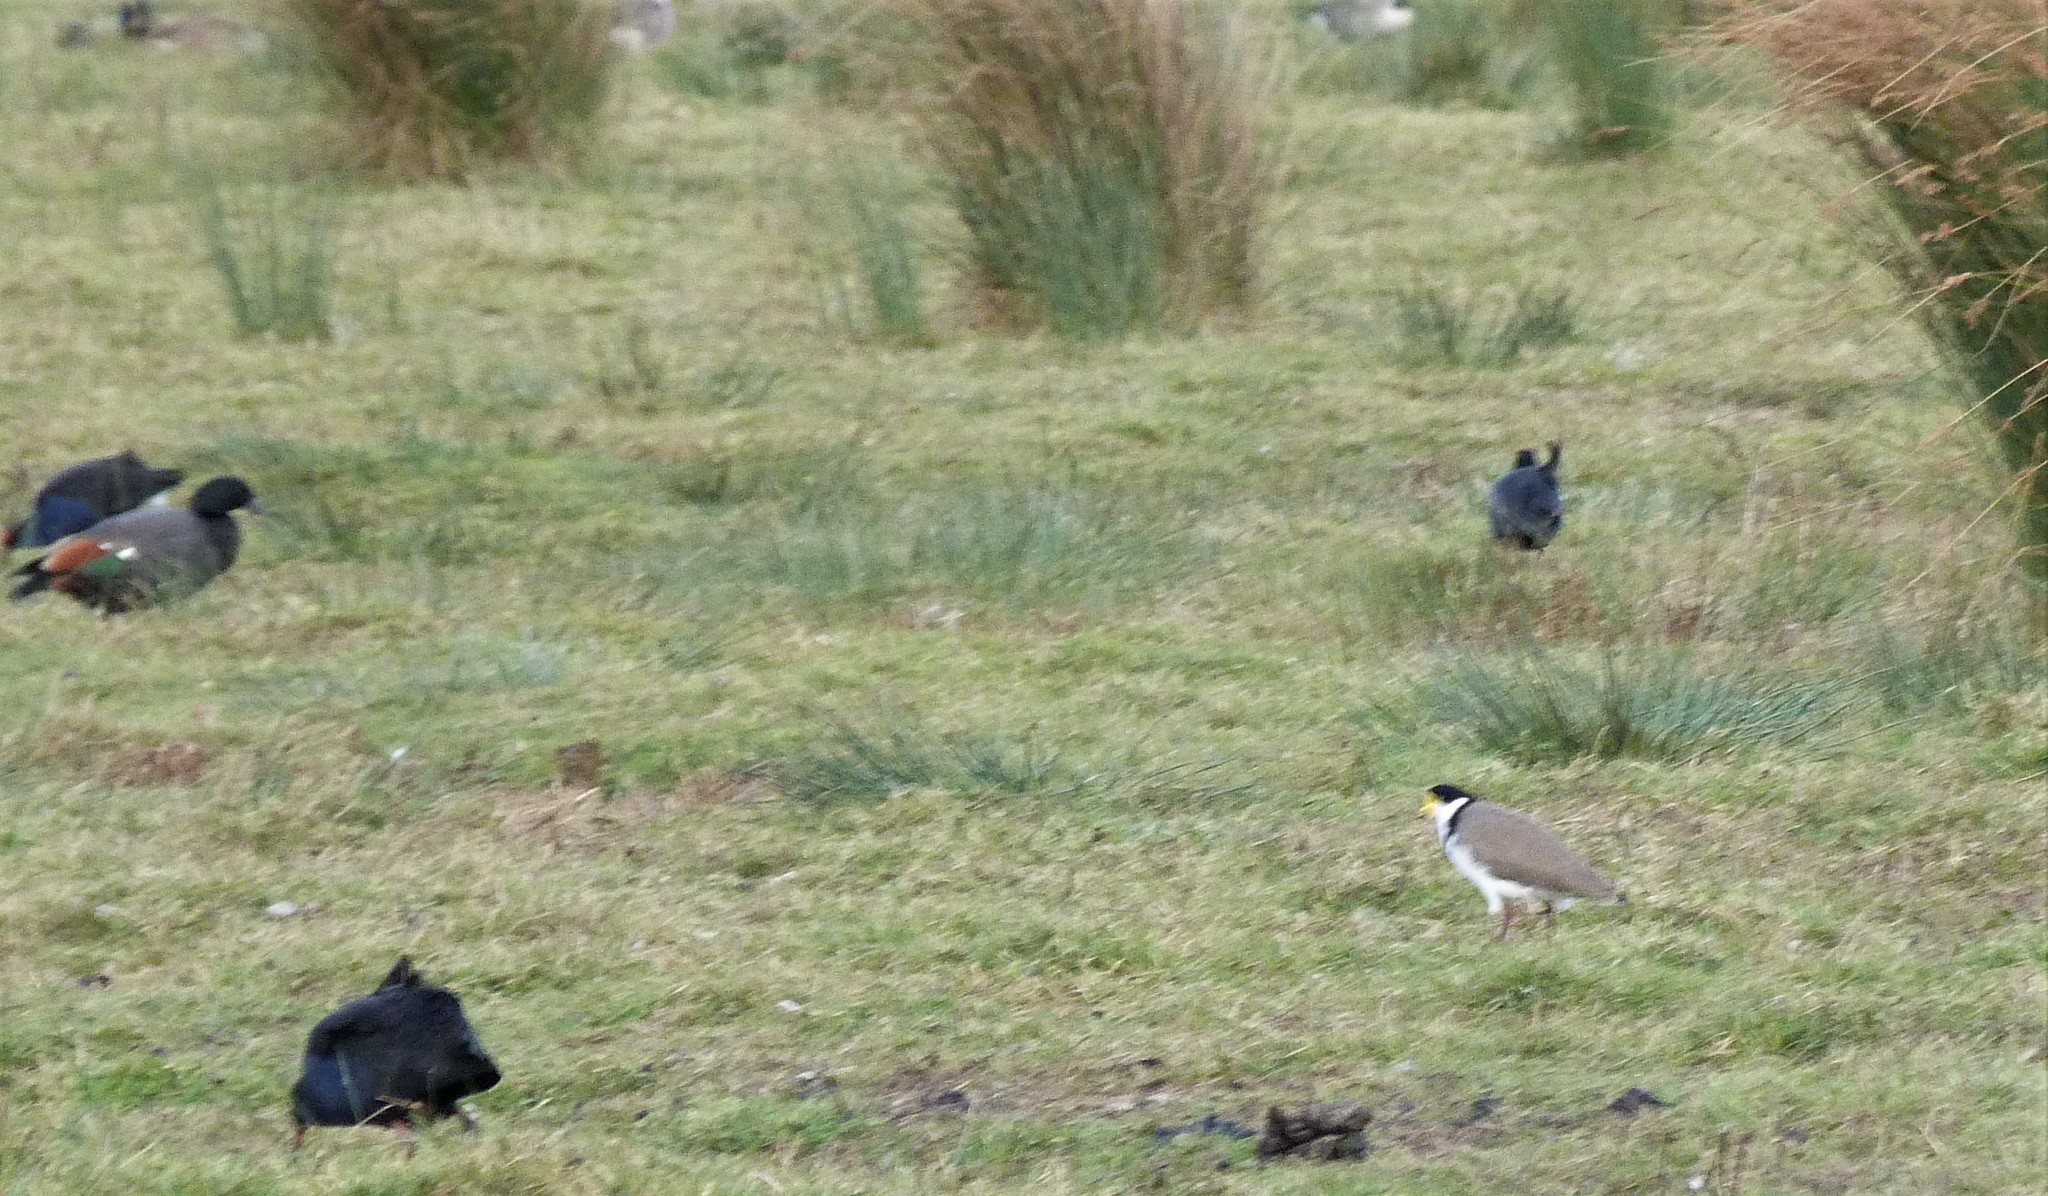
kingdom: Animalia
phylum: Chordata
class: Aves
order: Charadriiformes
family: Charadriidae
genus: Vanellus
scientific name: Vanellus miles
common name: Masked lapwing
